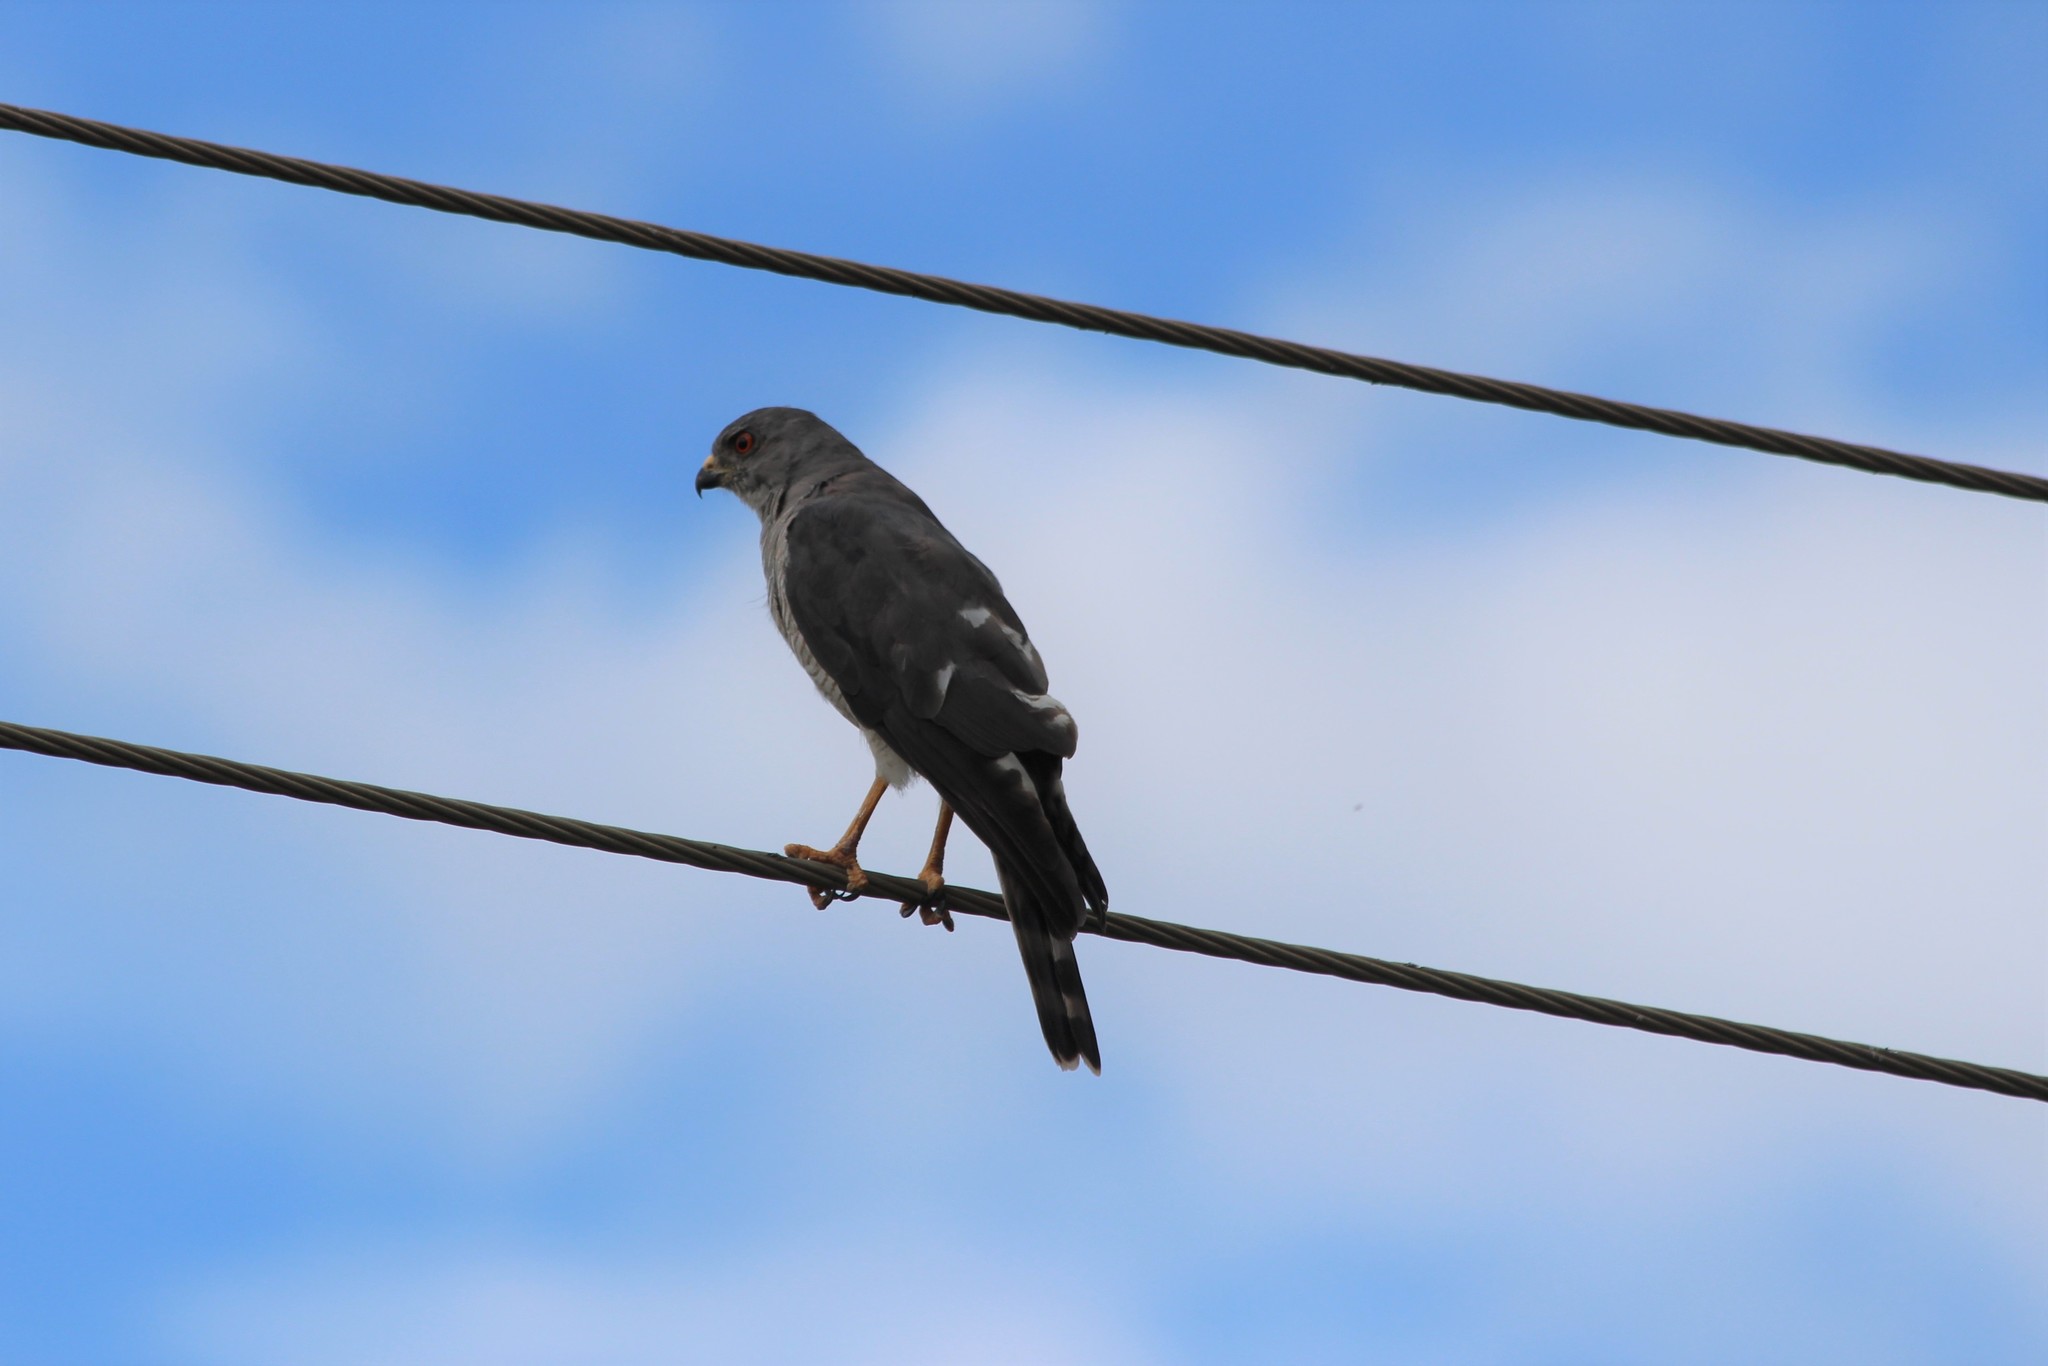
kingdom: Animalia
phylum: Chordata
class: Aves
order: Accipitriformes
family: Accipitridae
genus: Accipiter
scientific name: Accipiter badius
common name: Shikra
